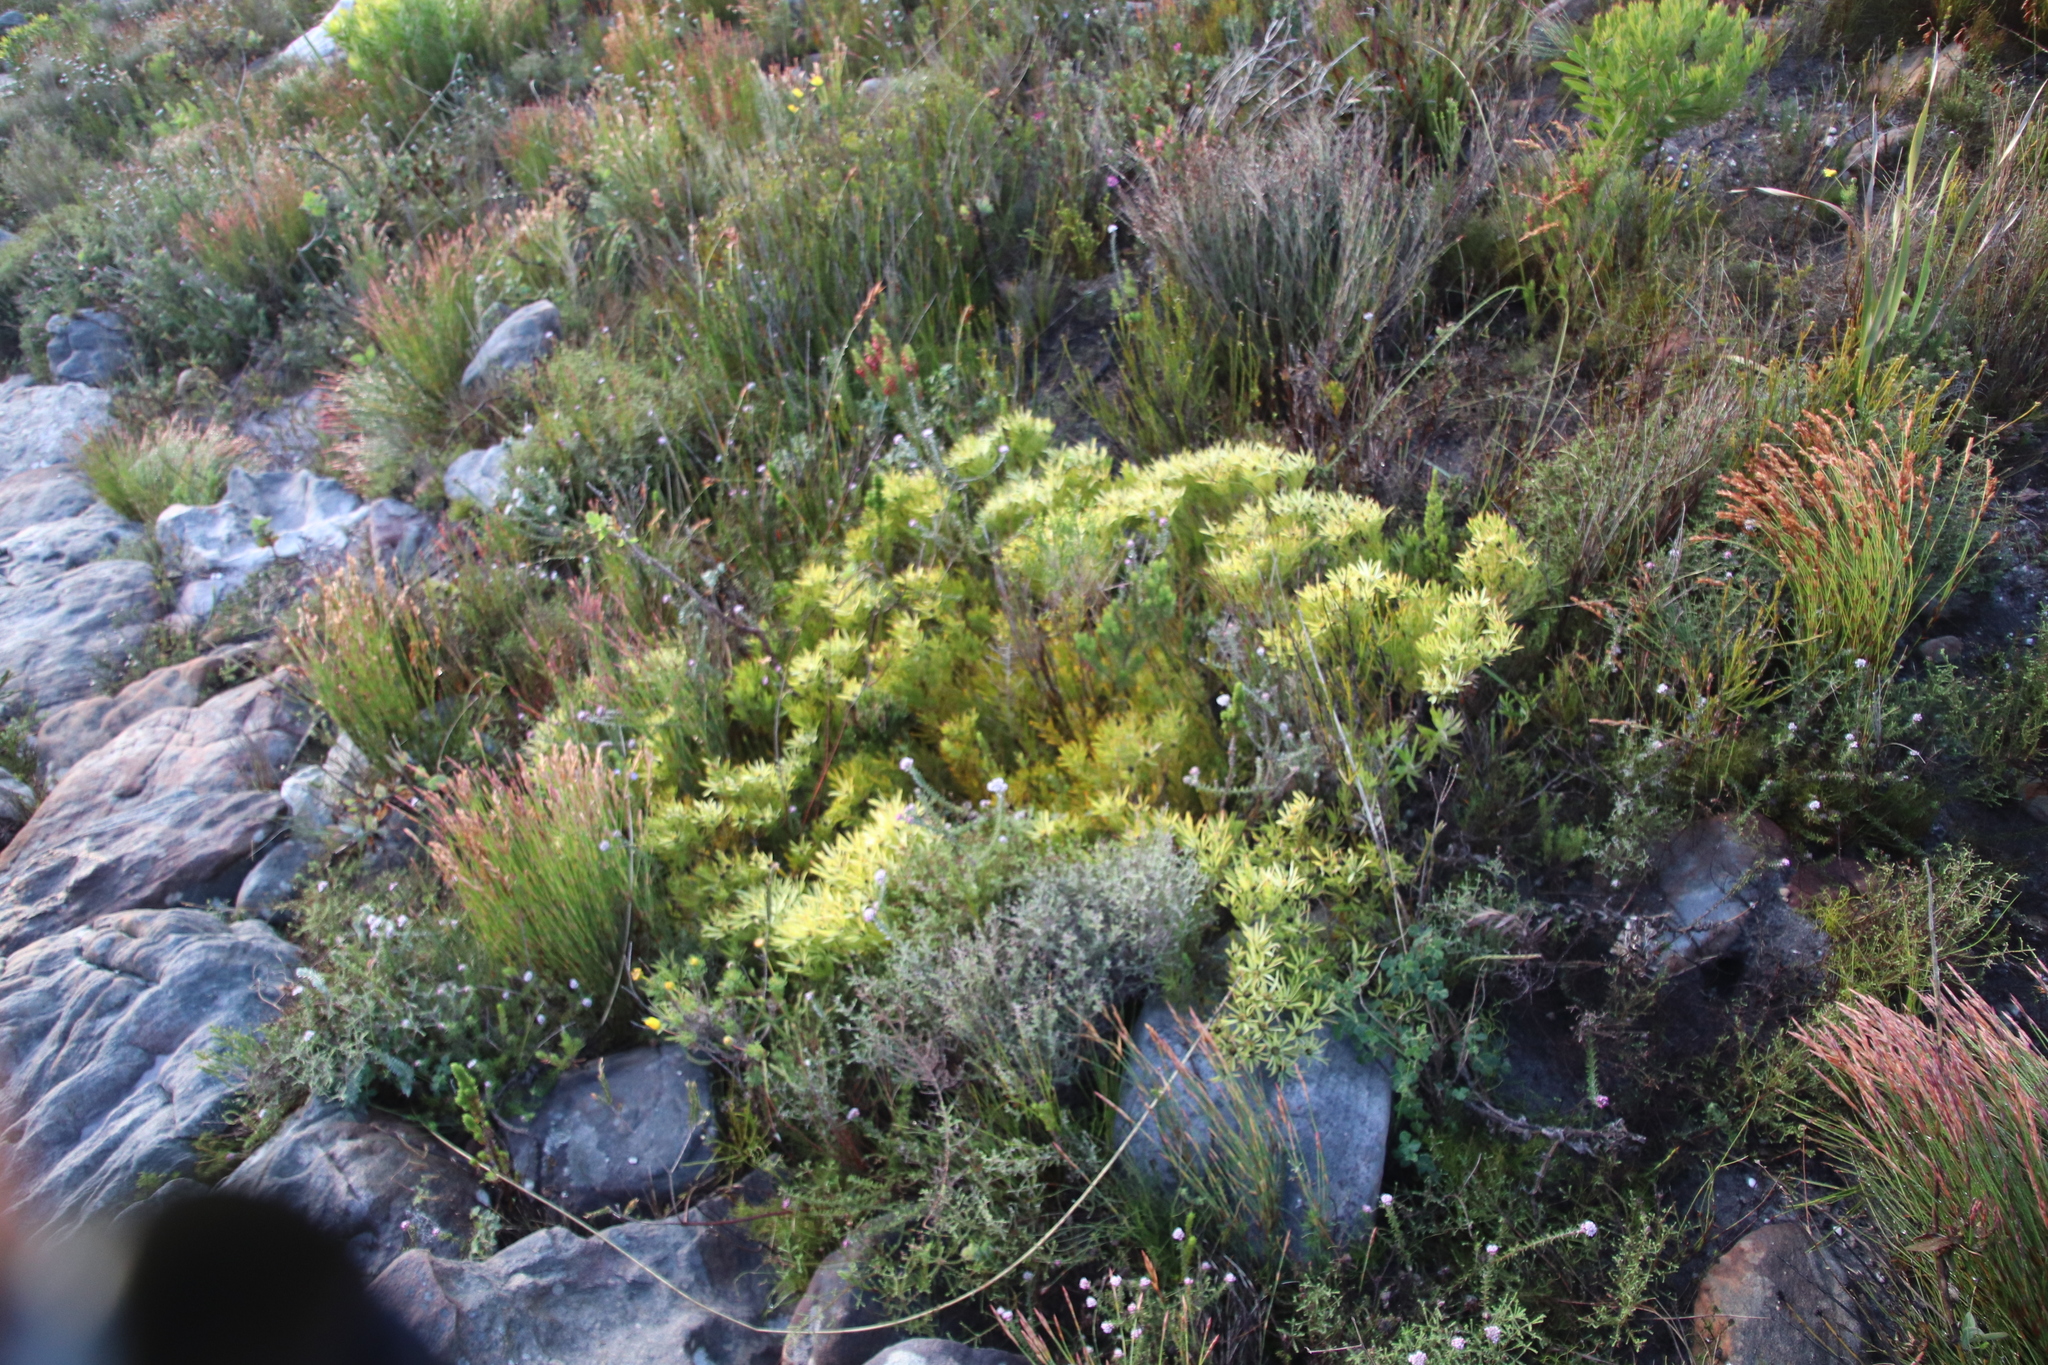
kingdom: Plantae
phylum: Tracheophyta
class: Magnoliopsida
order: Proteales
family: Proteaceae
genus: Leucadendron
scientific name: Leucadendron salignum
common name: Common sunshine conebush
